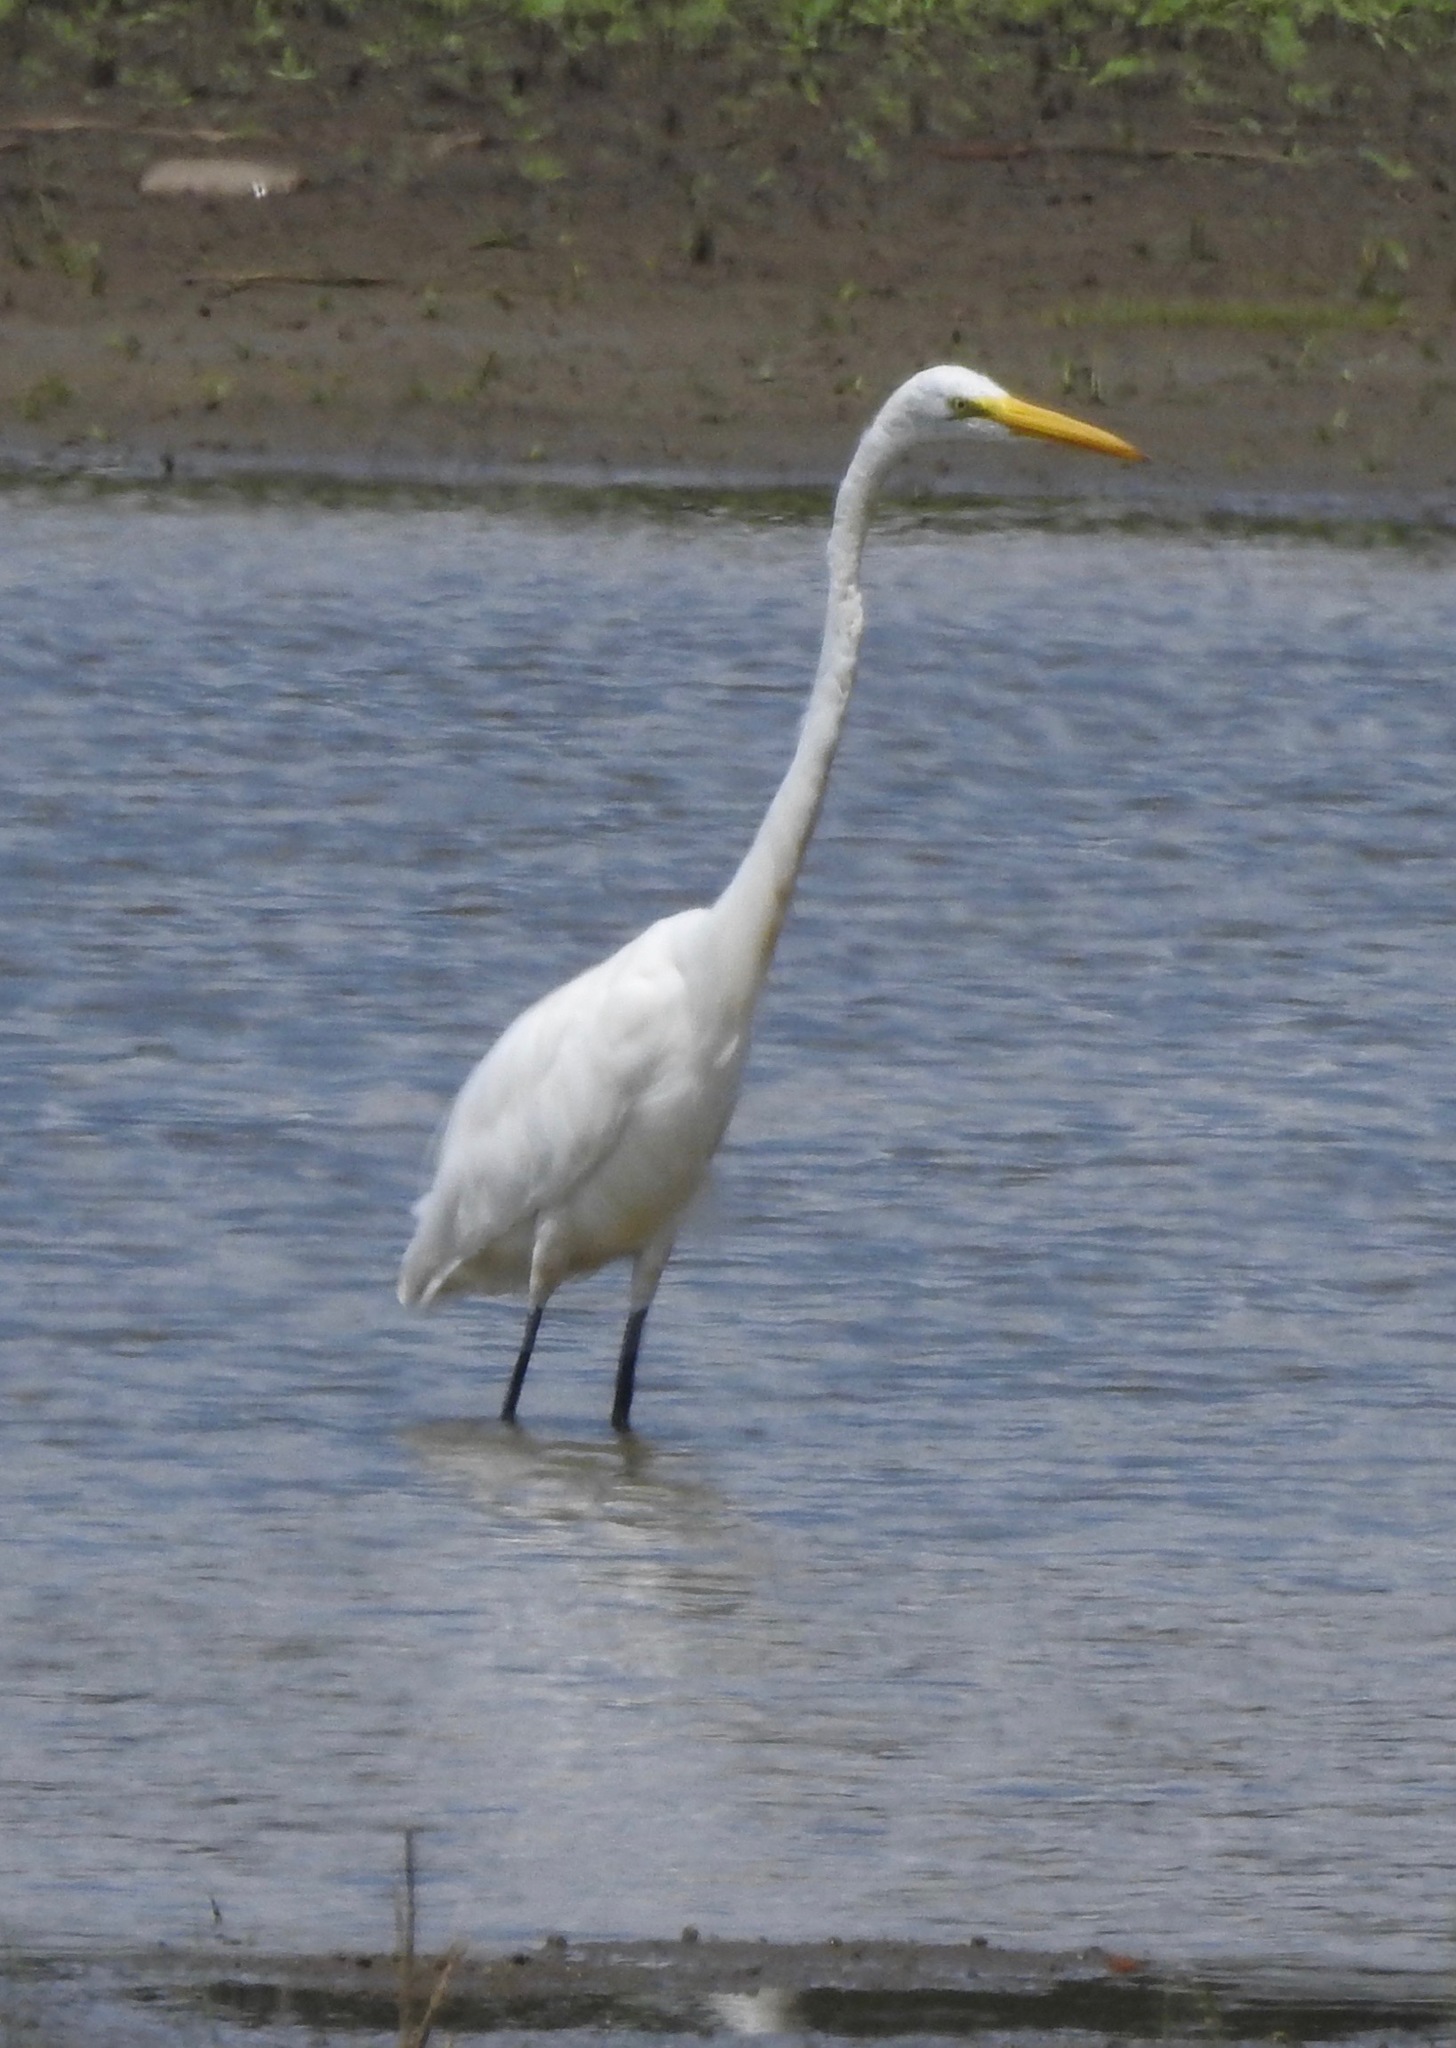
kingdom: Animalia
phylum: Chordata
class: Aves
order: Pelecaniformes
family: Ardeidae
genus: Ardea
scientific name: Ardea alba
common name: Great egret
